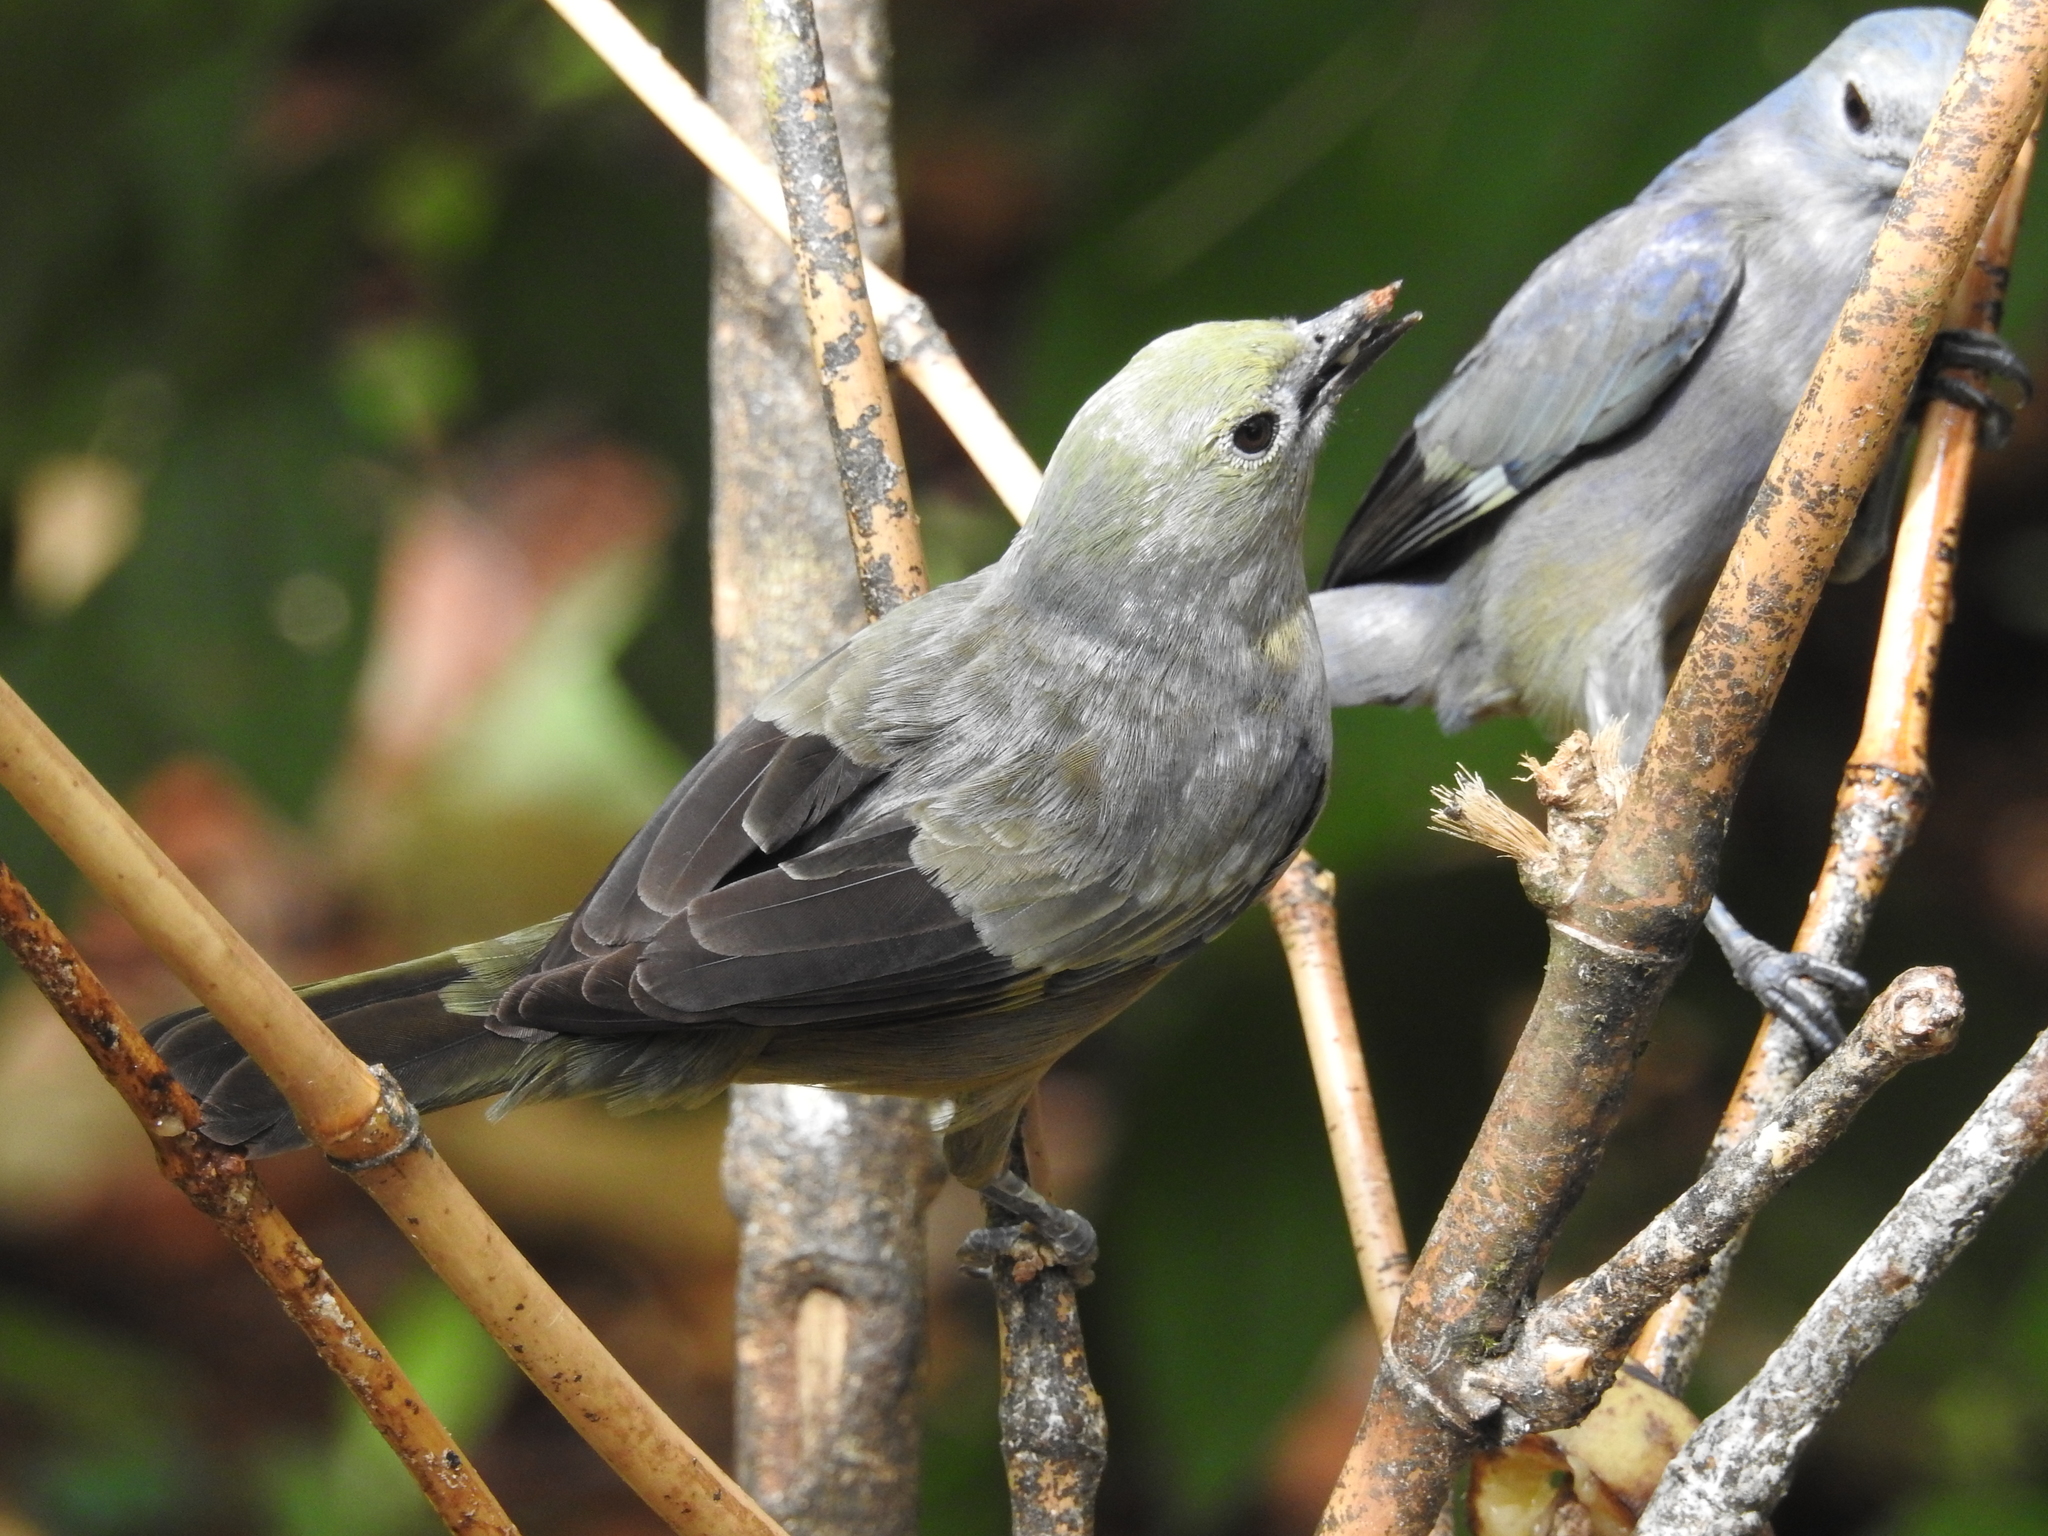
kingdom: Animalia
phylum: Chordata
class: Aves
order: Passeriformes
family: Thraupidae
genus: Thraupis
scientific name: Thraupis palmarum
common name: Palm tanager
